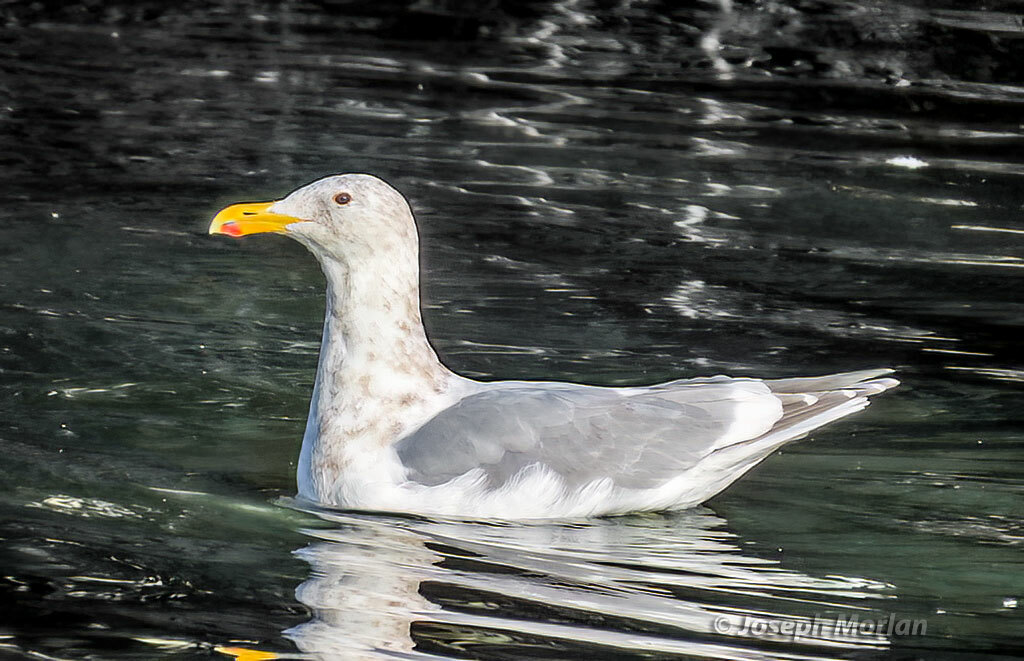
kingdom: Animalia
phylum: Chordata
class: Aves
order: Charadriiformes
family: Laridae
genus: Larus
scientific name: Larus glaucescens
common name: Glaucous-winged gull
